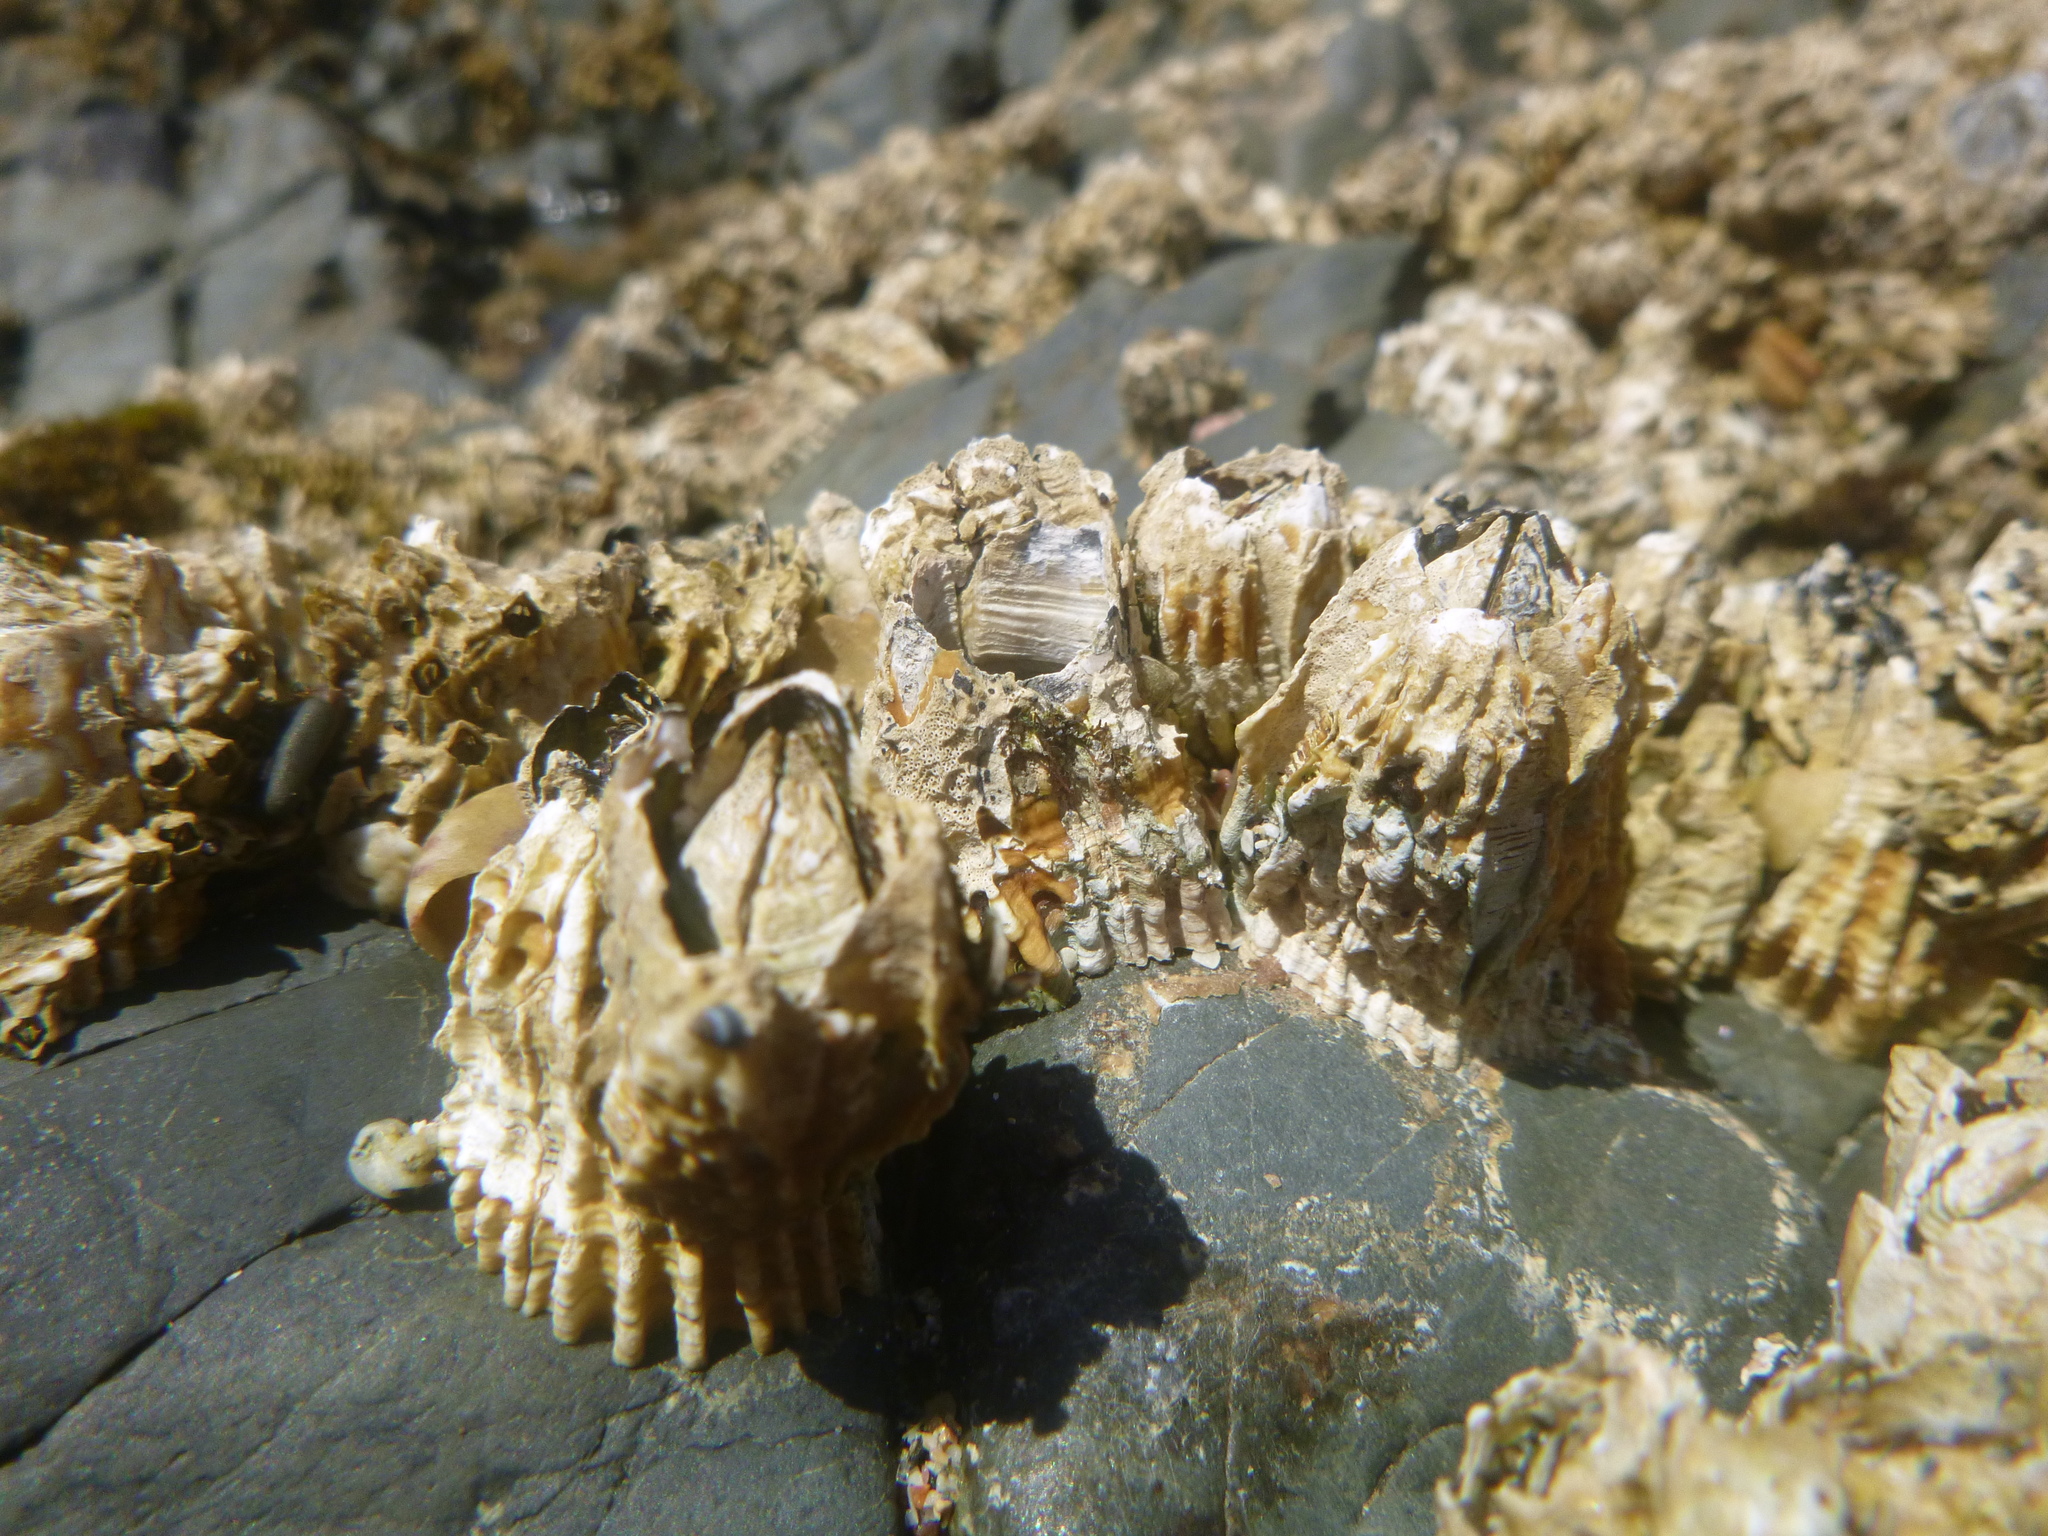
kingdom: Animalia
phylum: Arthropoda
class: Maxillopoda
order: Sessilia
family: Tetraclitidae
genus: Epopella
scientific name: Epopella plicata
